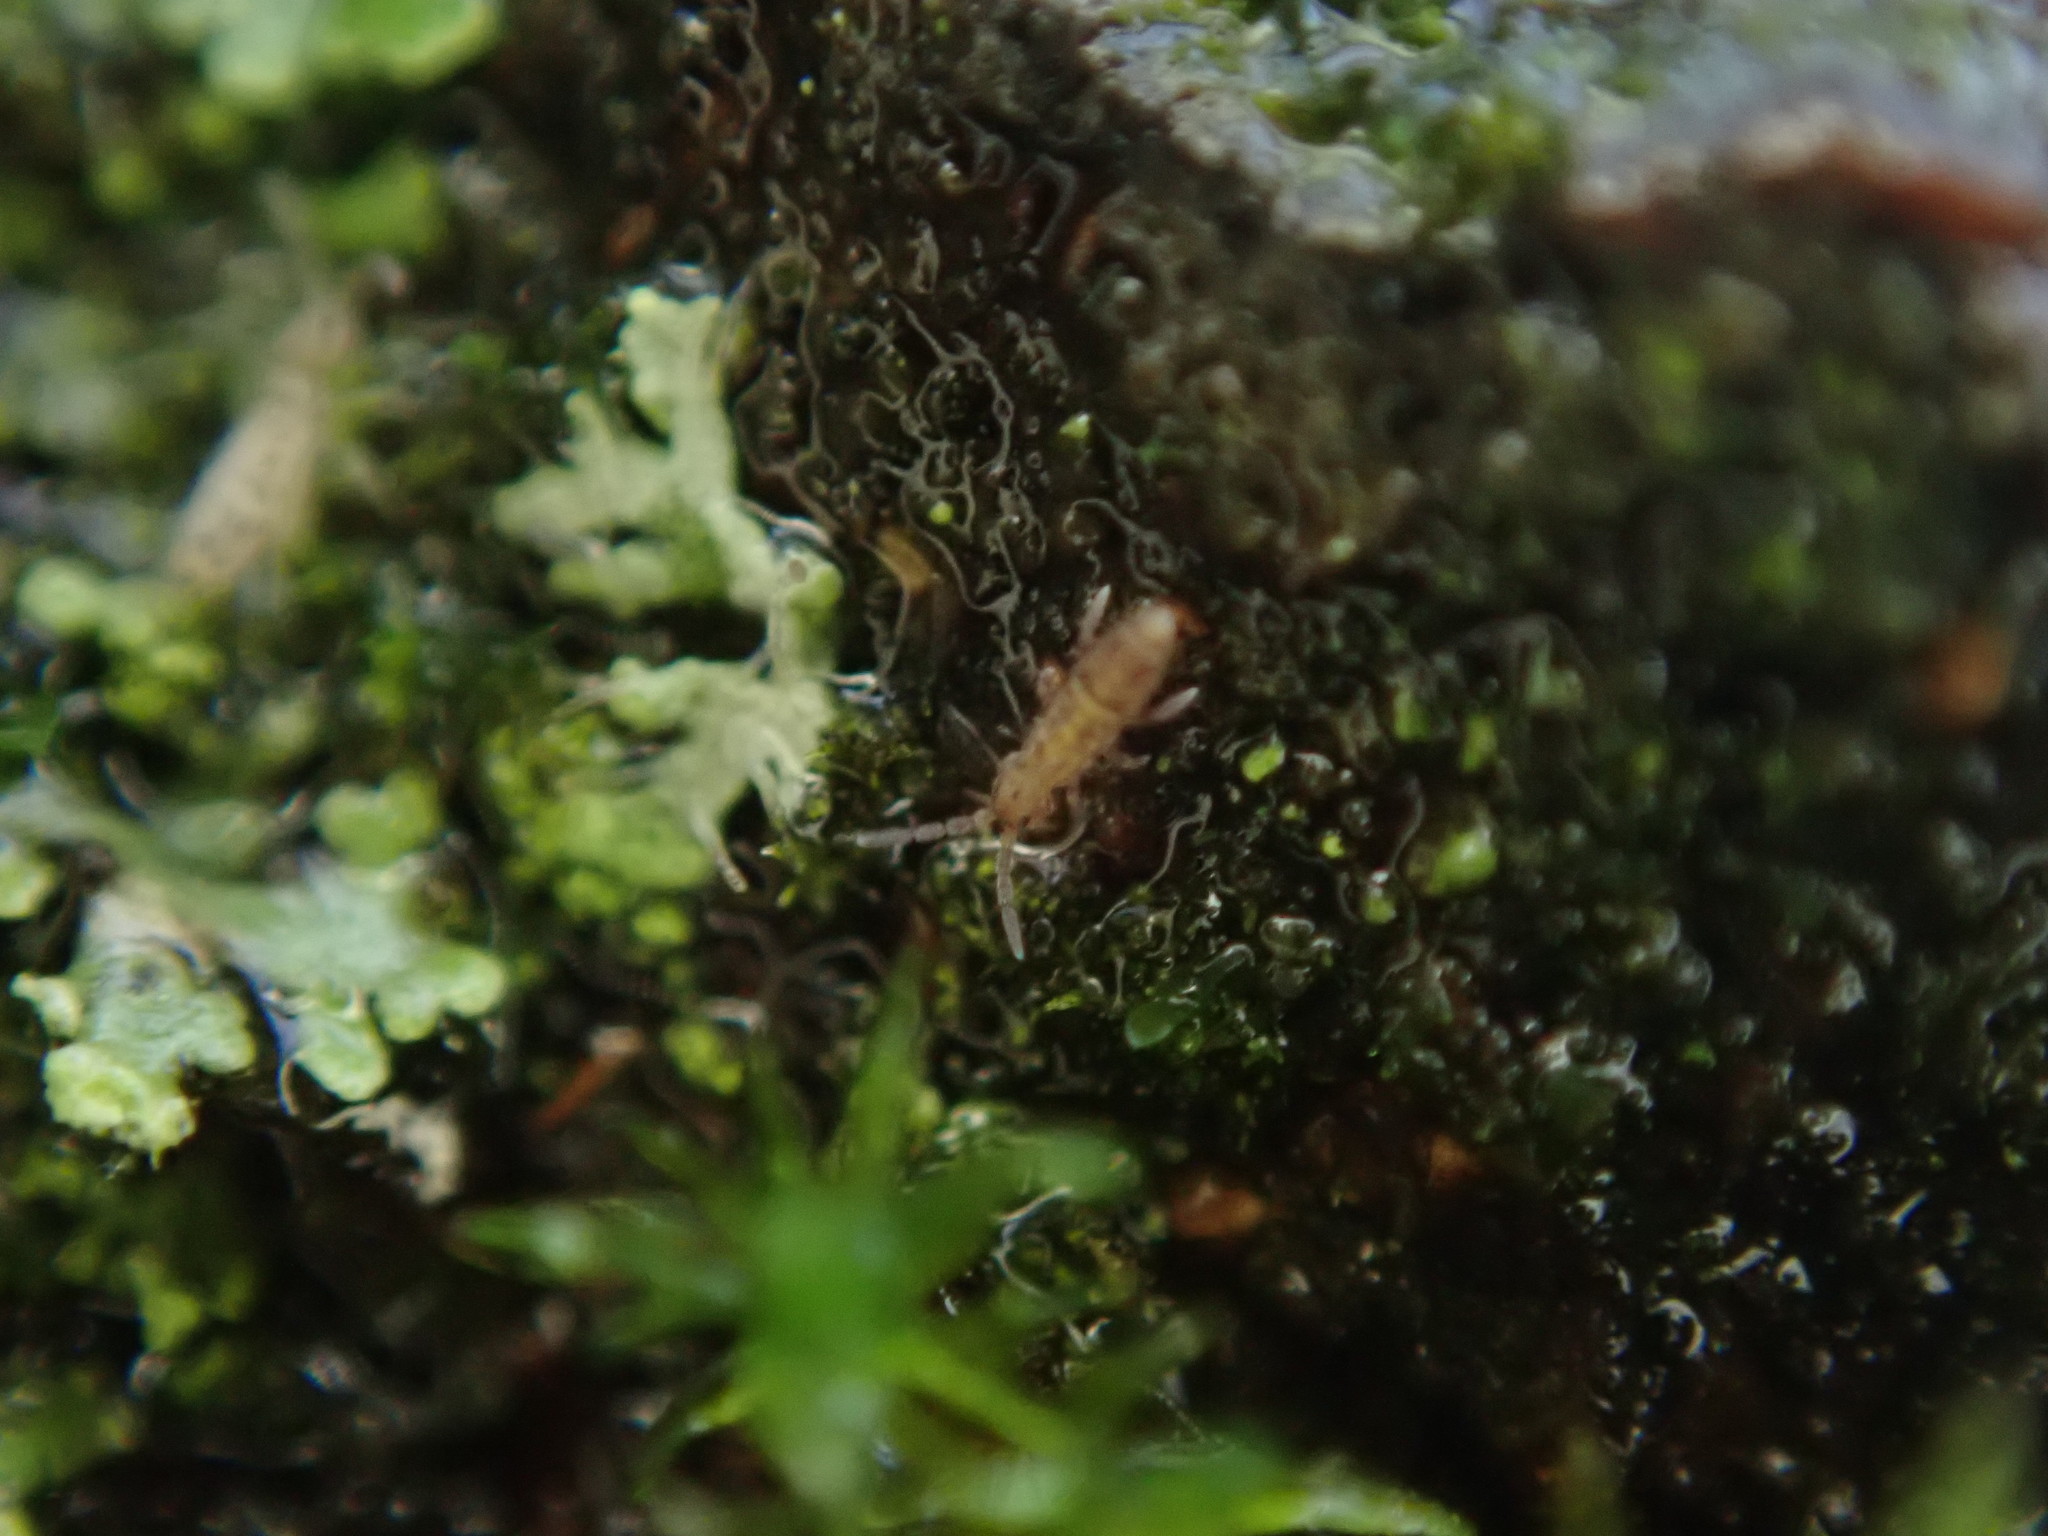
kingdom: Animalia
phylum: Arthropoda
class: Collembola
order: Entomobryomorpha
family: Orchesellidae
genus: Orchesella
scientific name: Orchesella cincta
